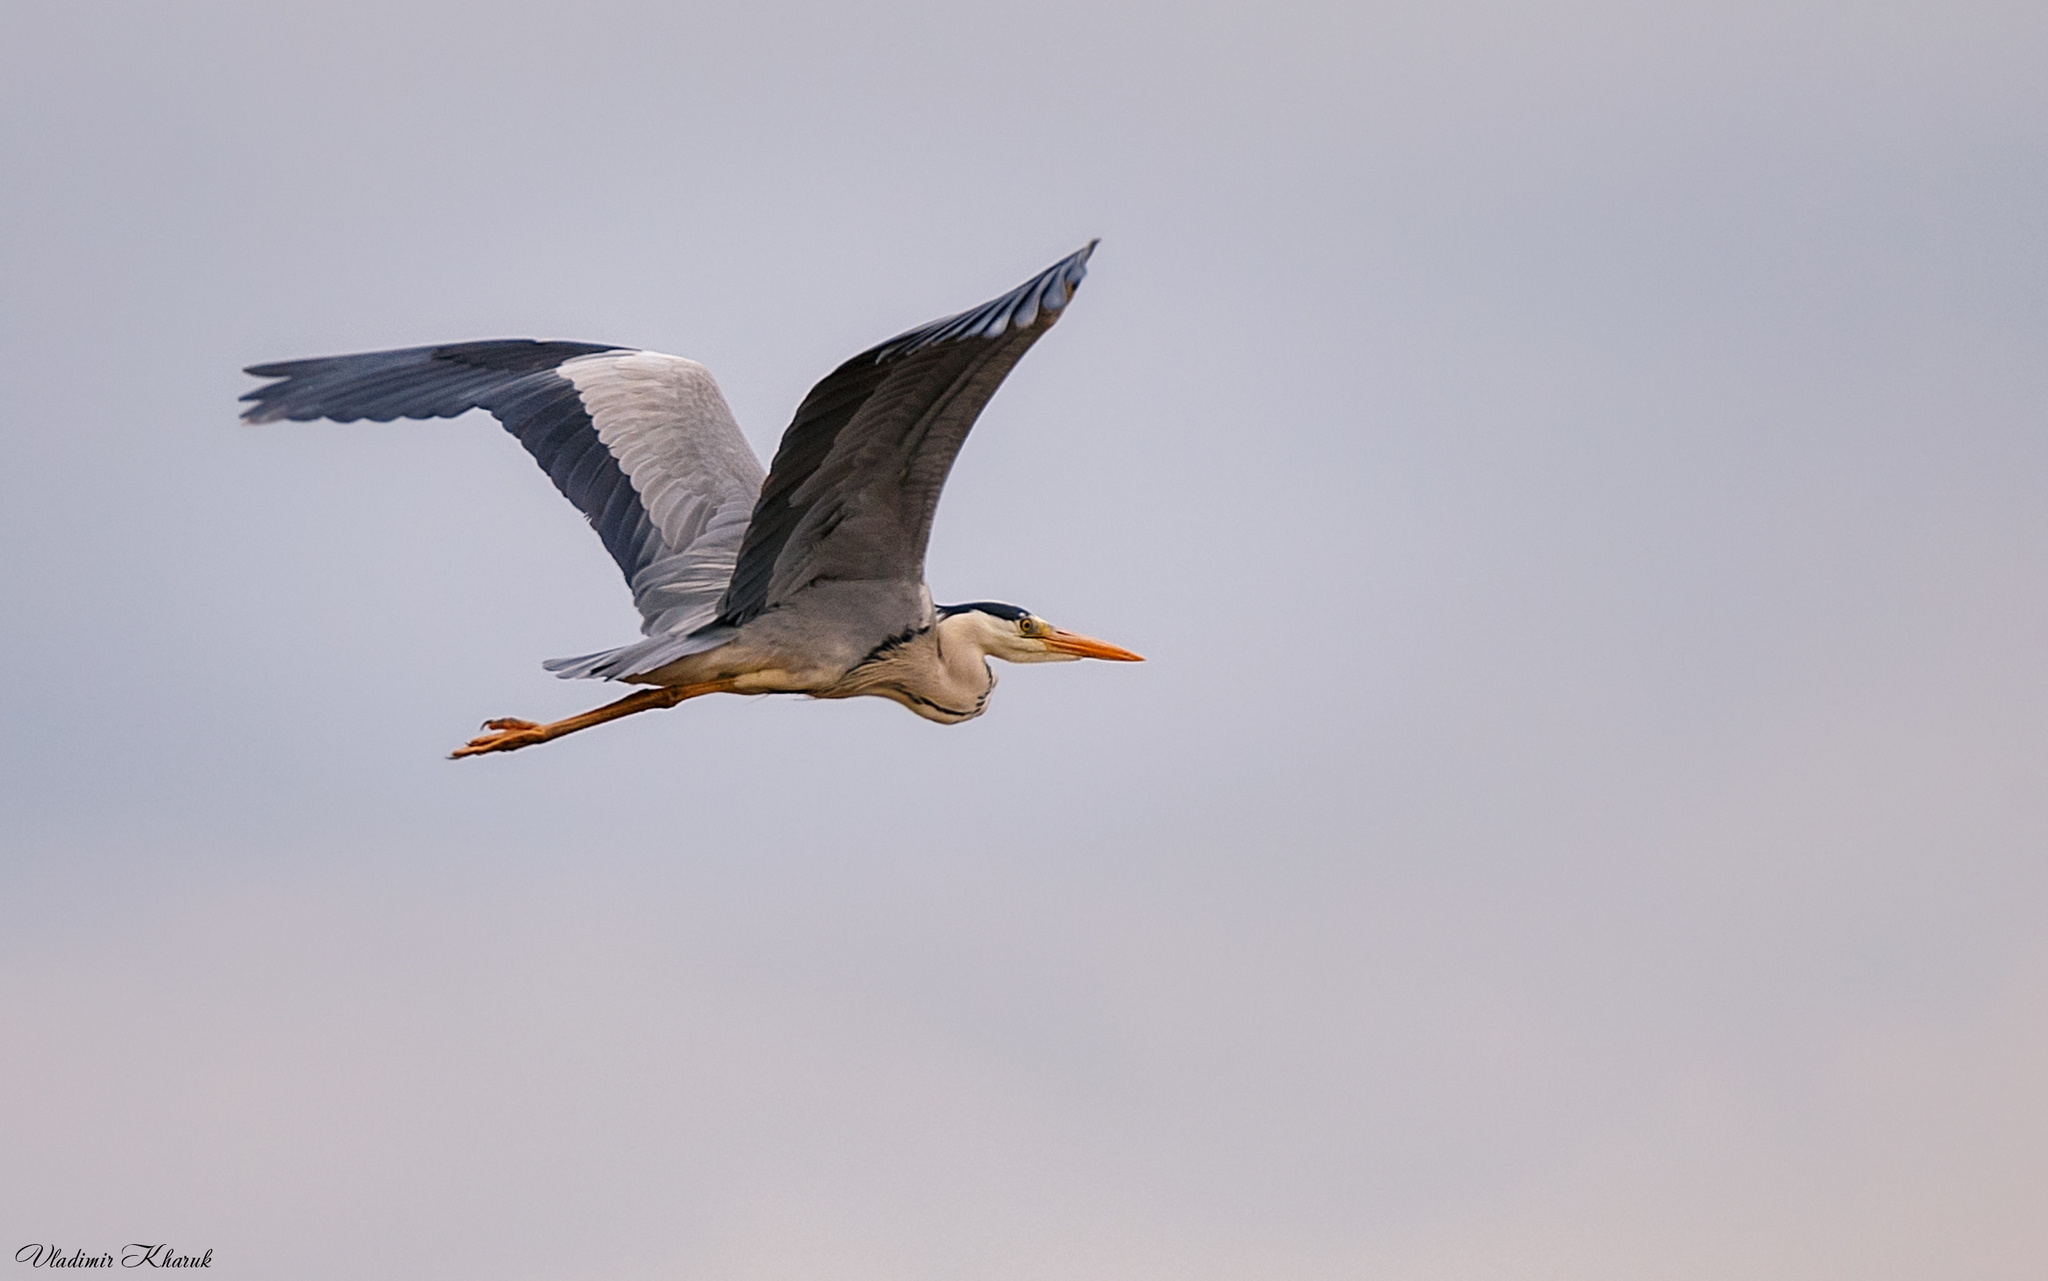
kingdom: Animalia
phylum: Chordata
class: Aves
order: Pelecaniformes
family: Ardeidae
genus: Ardea
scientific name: Ardea cinerea
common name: Grey heron
